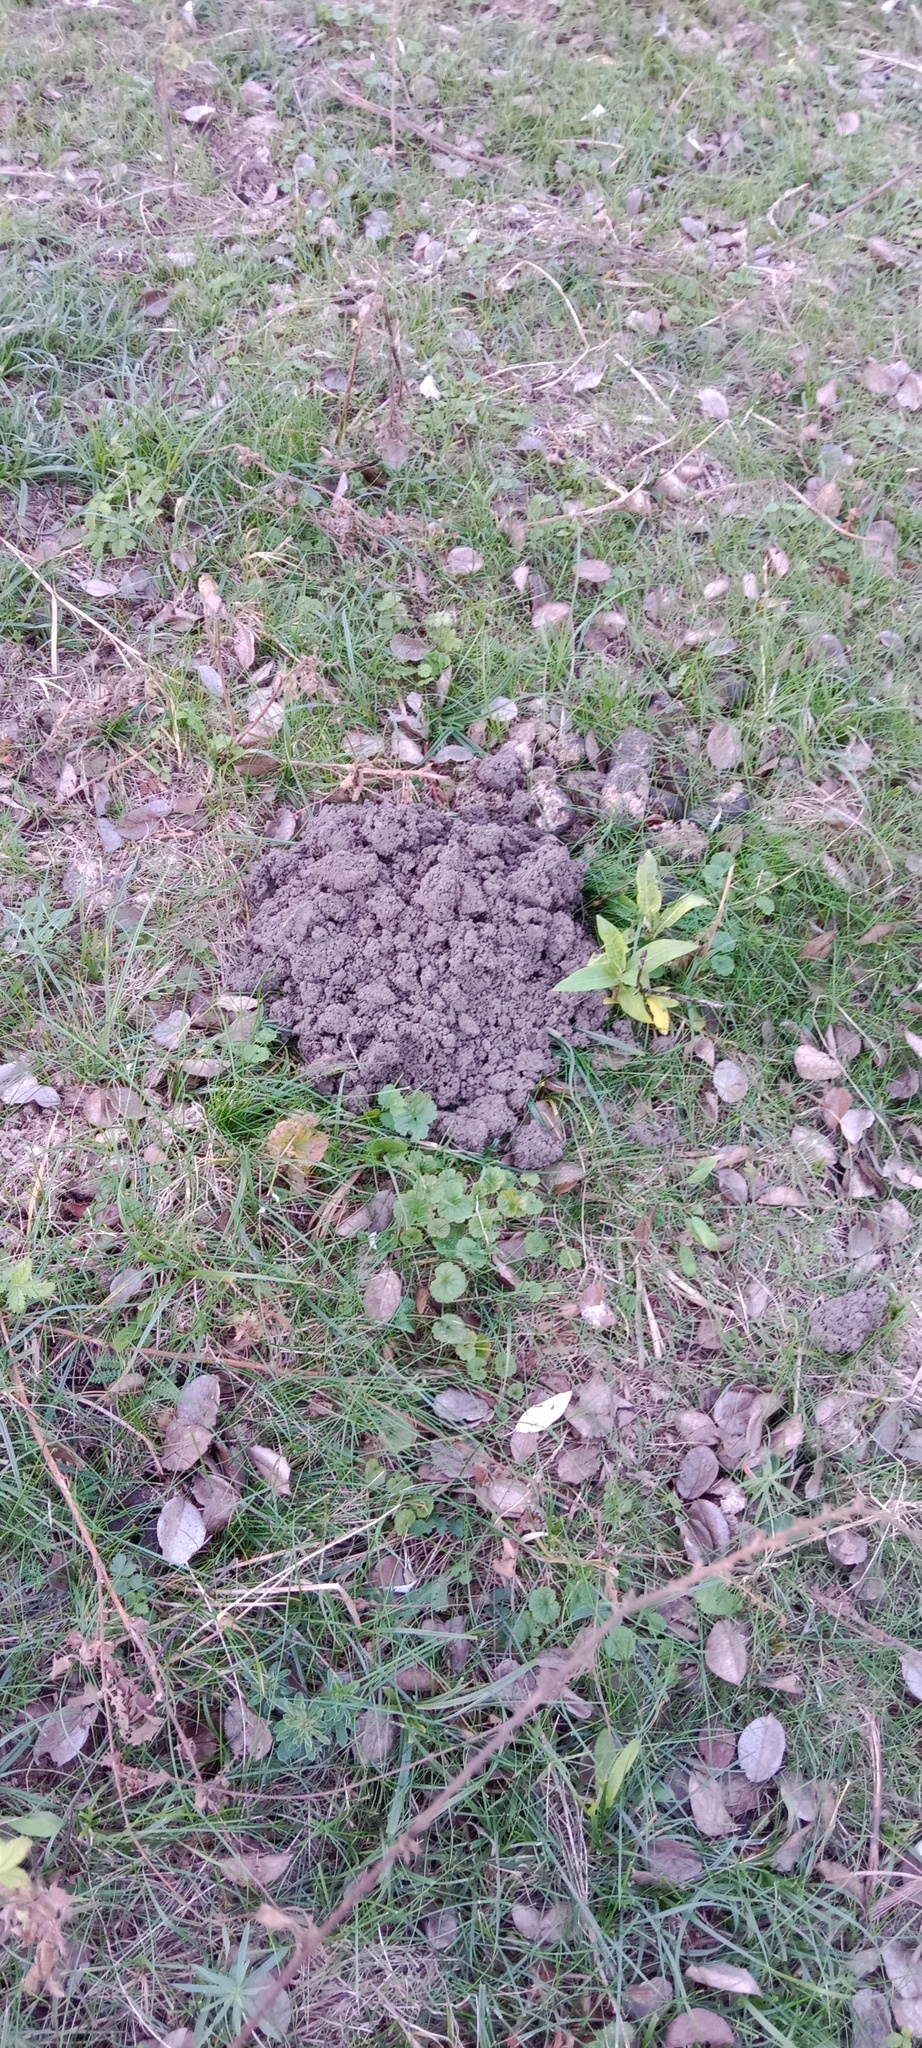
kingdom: Animalia
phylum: Chordata
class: Mammalia
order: Soricomorpha
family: Talpidae
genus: Talpa
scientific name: Talpa europaea
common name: European mole
